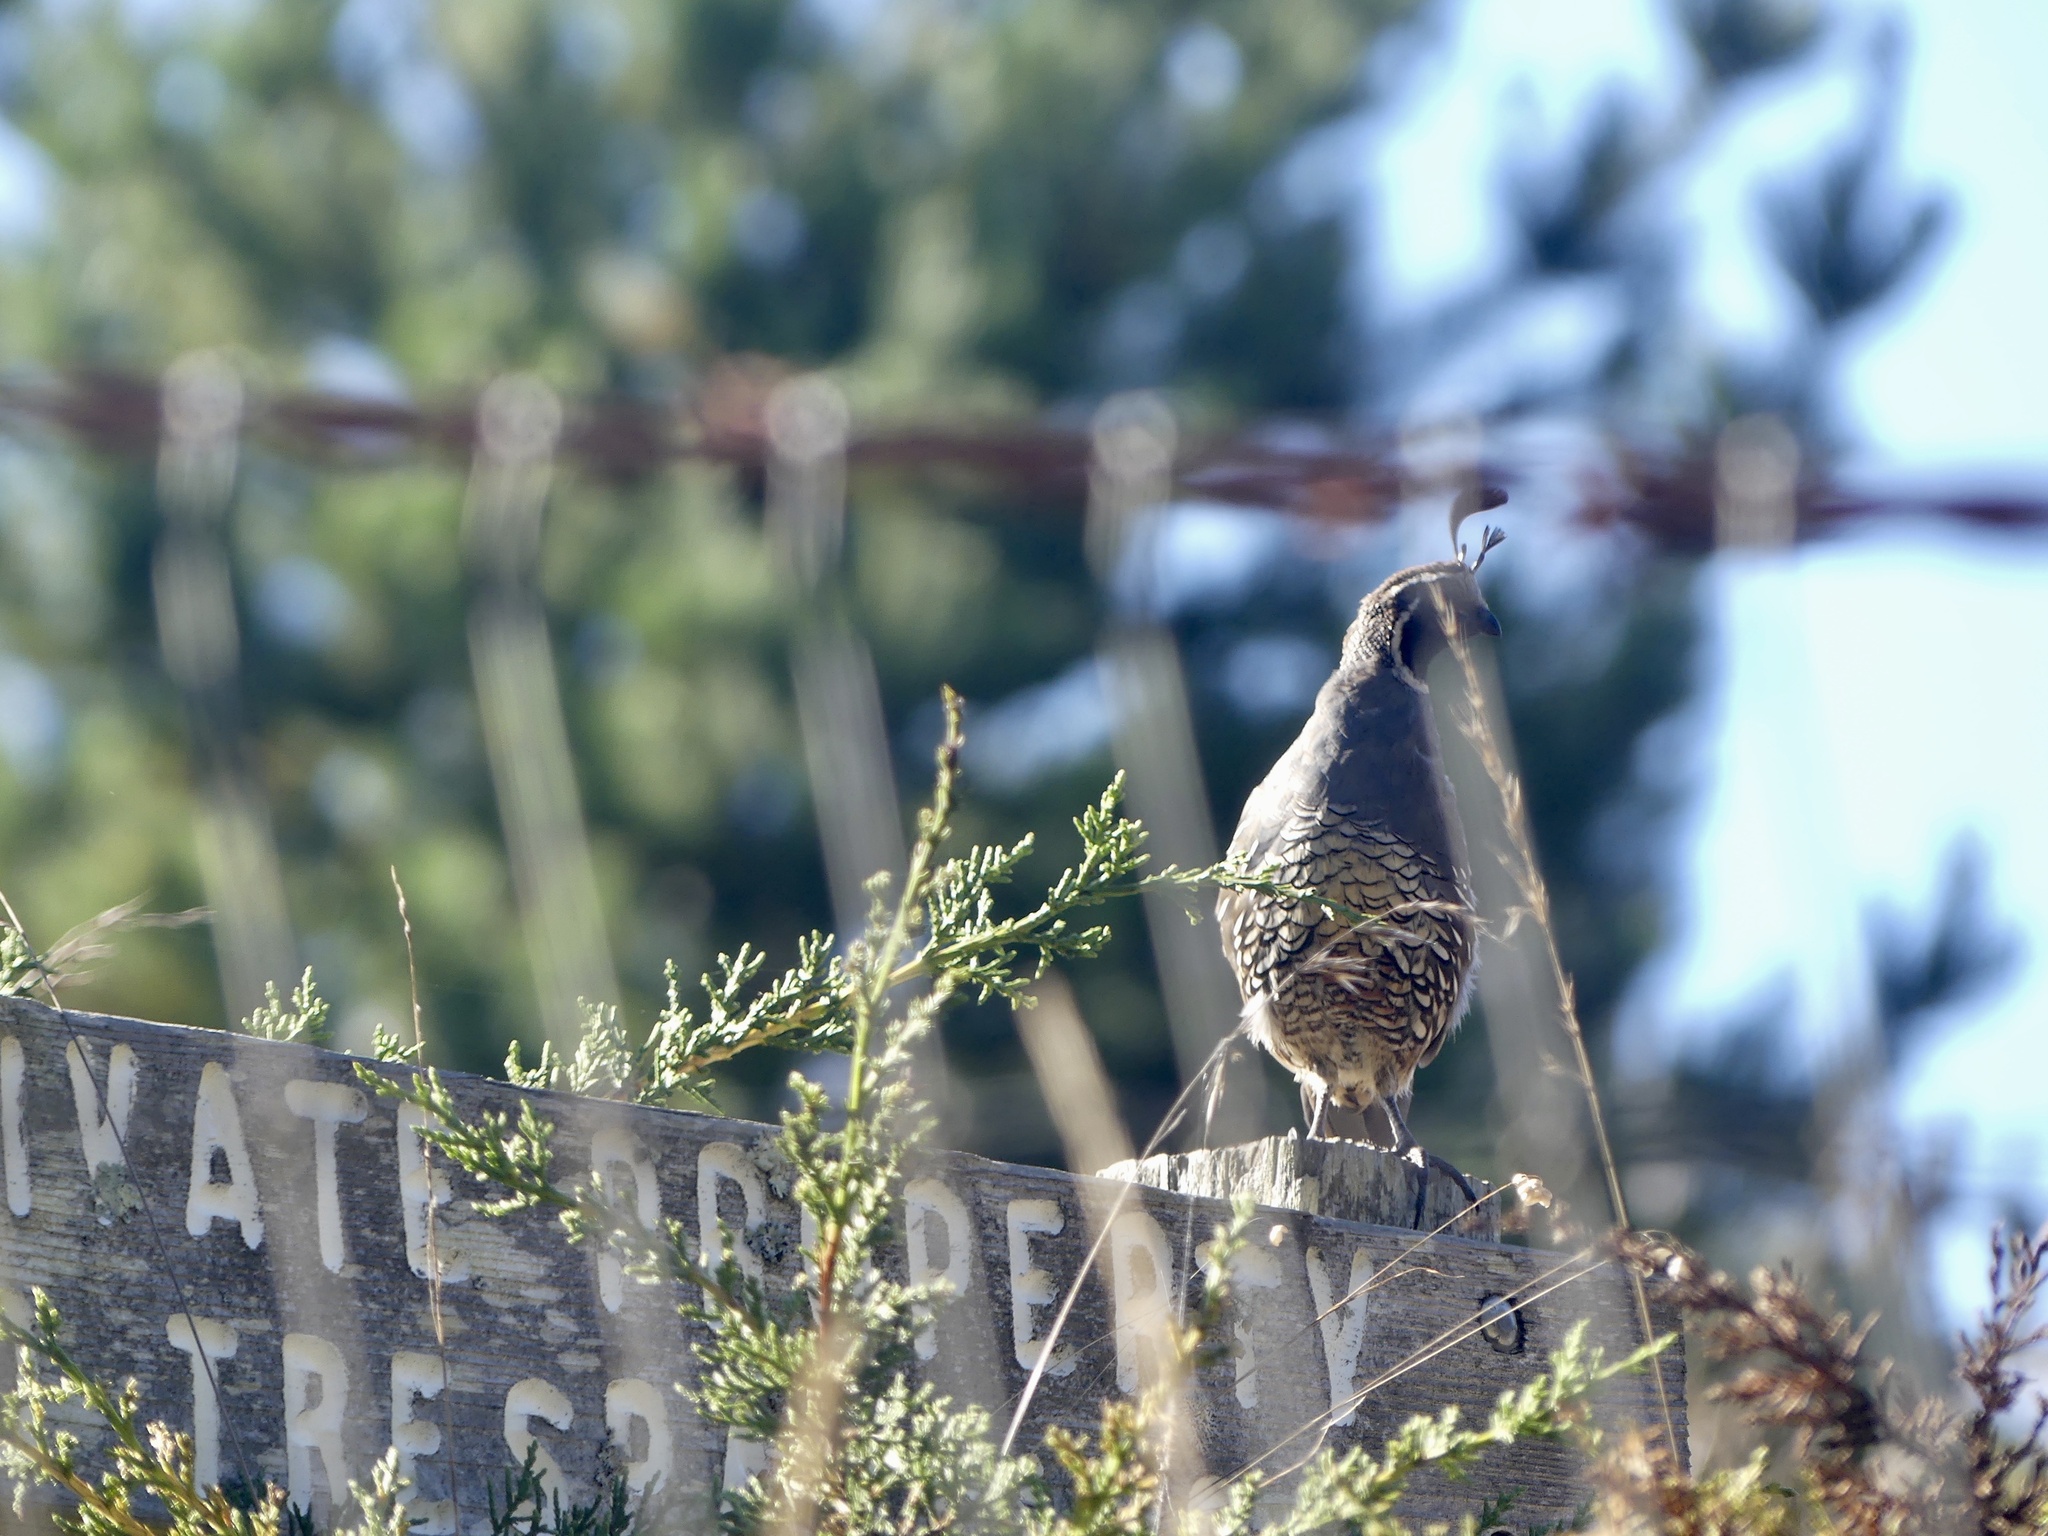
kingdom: Animalia
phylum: Chordata
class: Aves
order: Galliformes
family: Odontophoridae
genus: Callipepla
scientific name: Callipepla californica
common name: California quail
